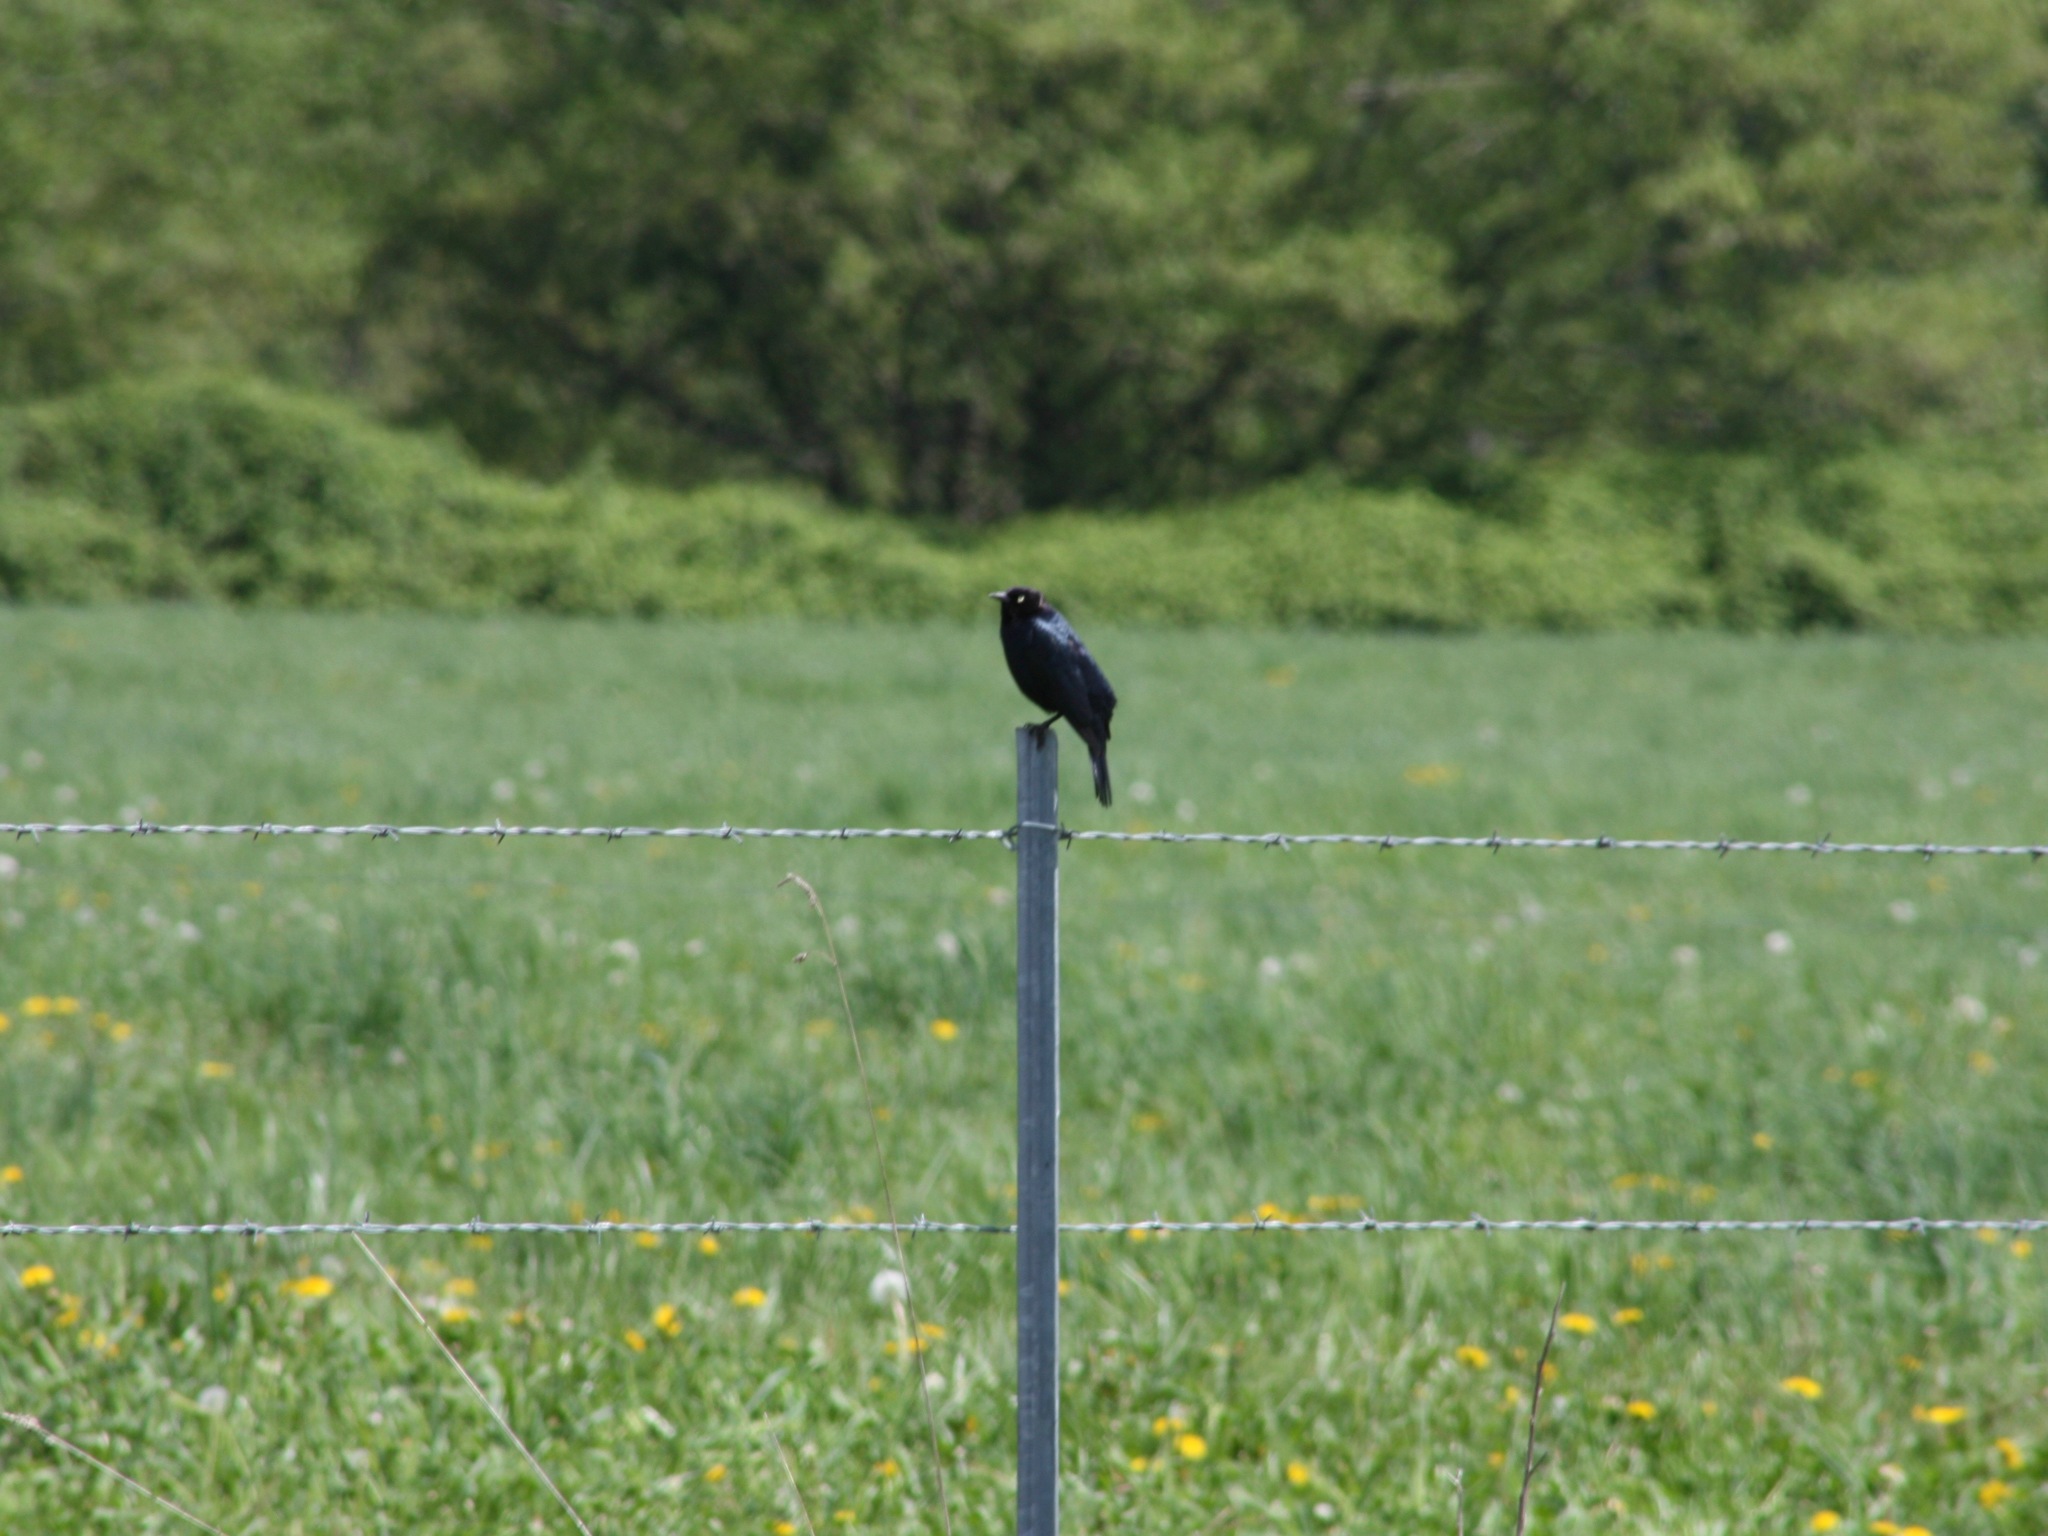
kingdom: Animalia
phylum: Chordata
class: Aves
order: Passeriformes
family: Icteridae
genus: Euphagus
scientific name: Euphagus cyanocephalus
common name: Brewer's blackbird
